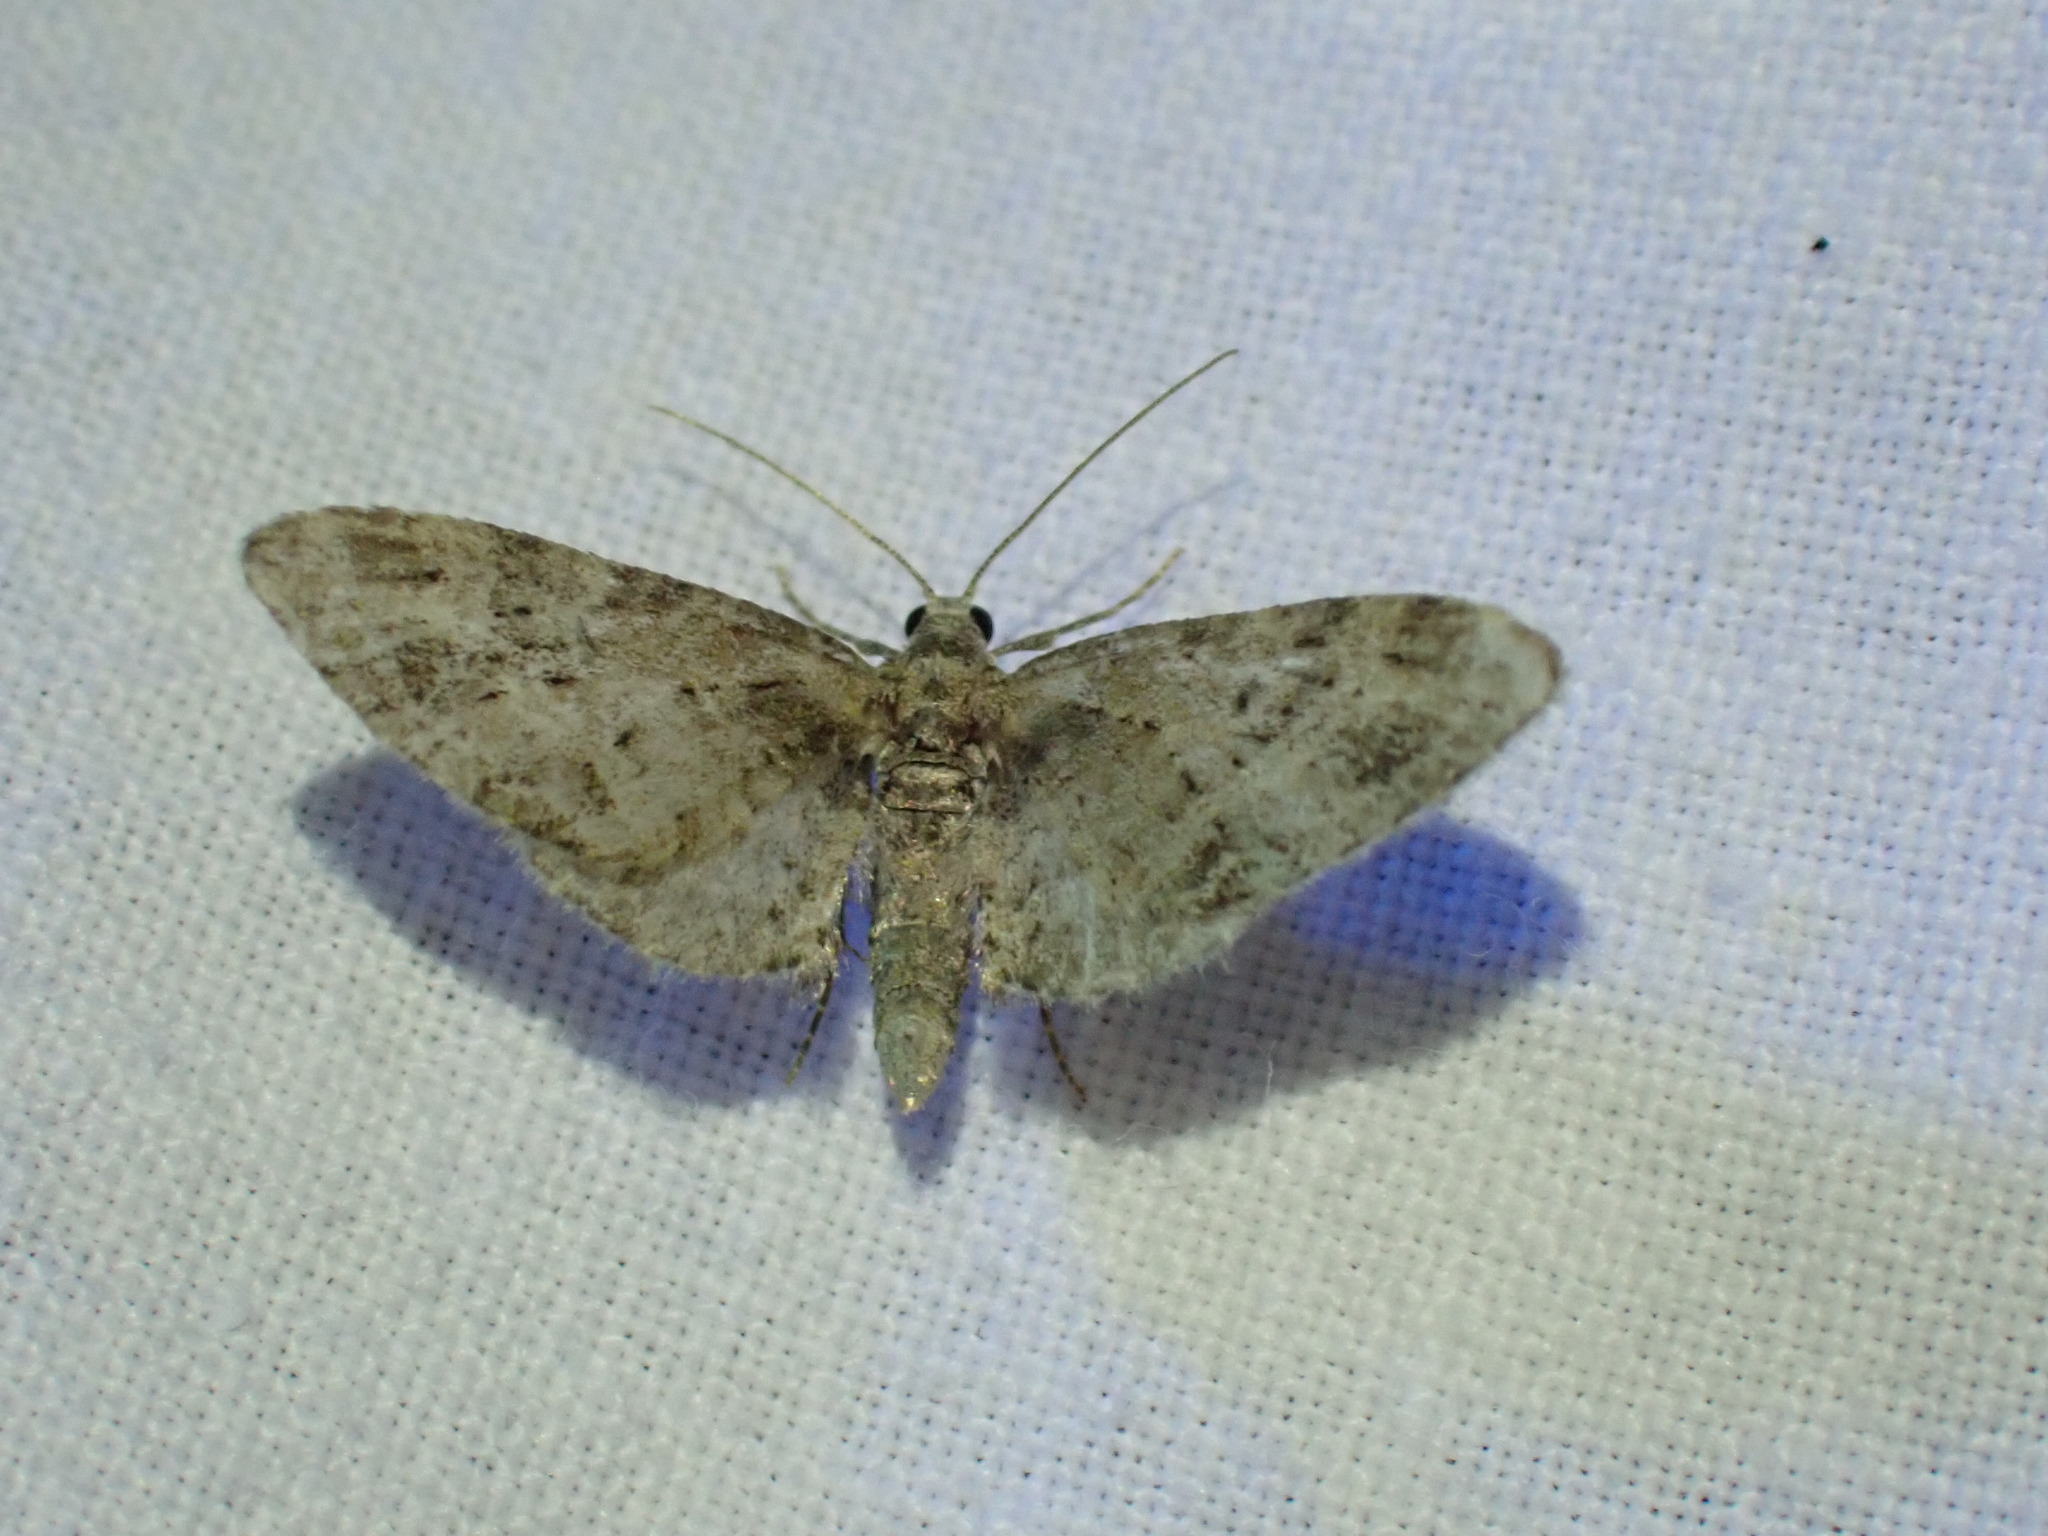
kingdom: Animalia
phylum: Arthropoda
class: Insecta
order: Lepidoptera
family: Geometridae
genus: Eupithecia
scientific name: Eupithecia exiguata
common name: Mottled pug
